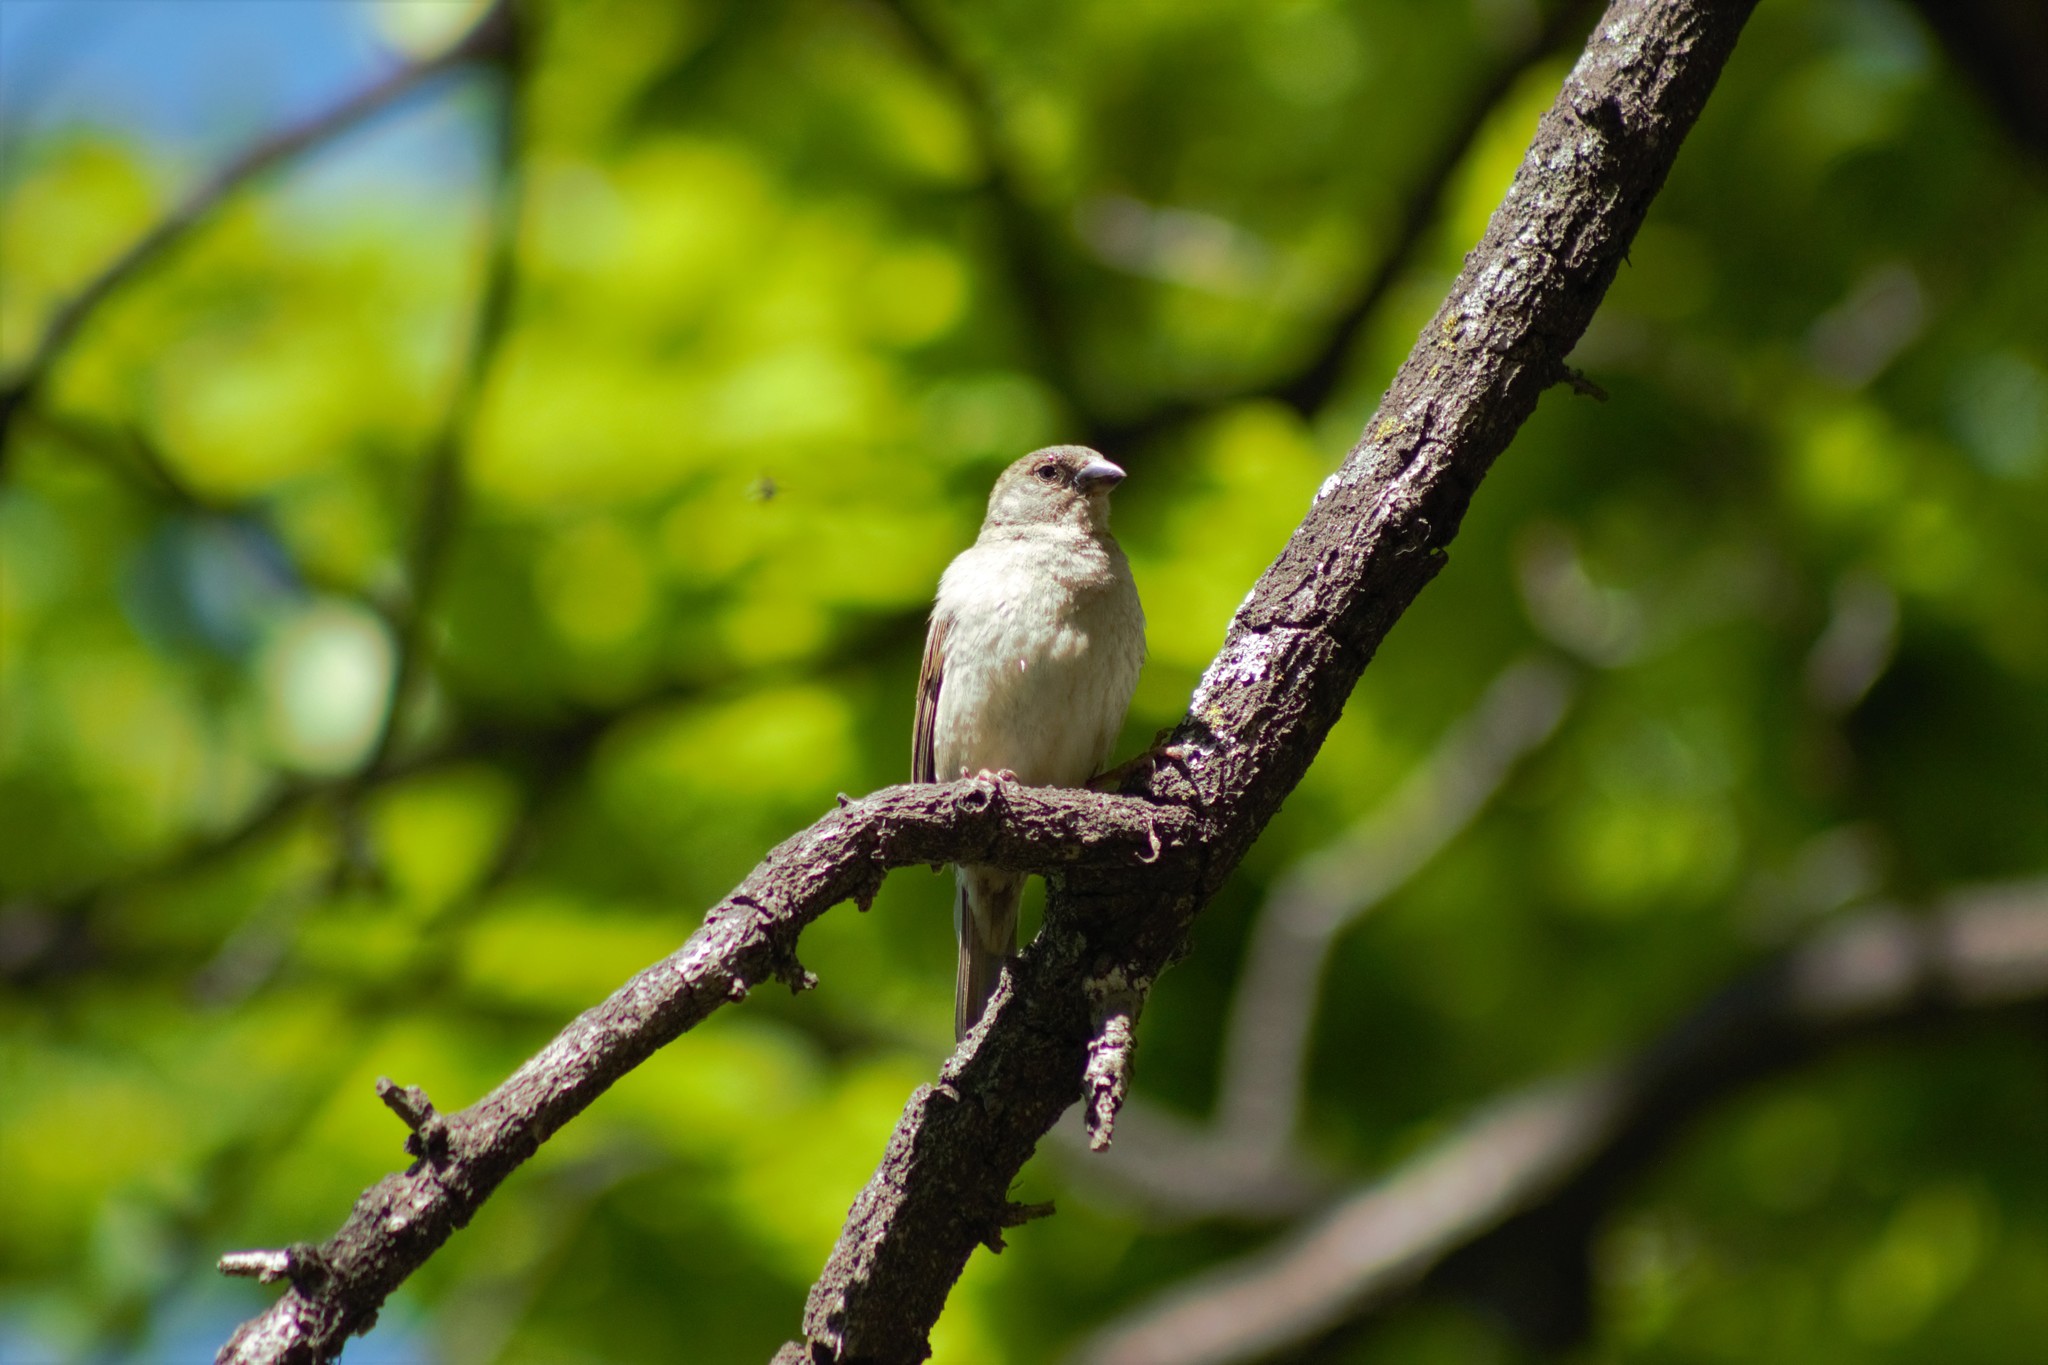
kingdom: Animalia
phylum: Chordata
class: Aves
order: Passeriformes
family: Passeridae
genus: Passer
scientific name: Passer domesticus
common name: House sparrow
